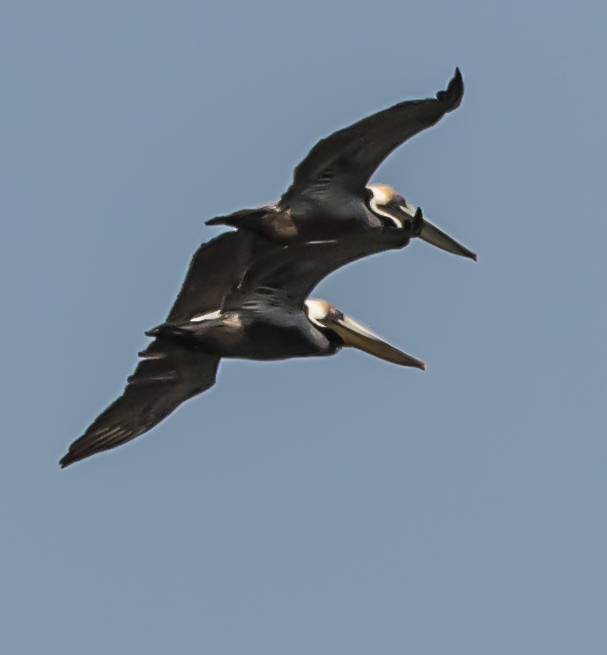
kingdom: Animalia
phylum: Chordata
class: Aves
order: Pelecaniformes
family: Pelecanidae
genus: Pelecanus
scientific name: Pelecanus occidentalis
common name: Brown pelican
